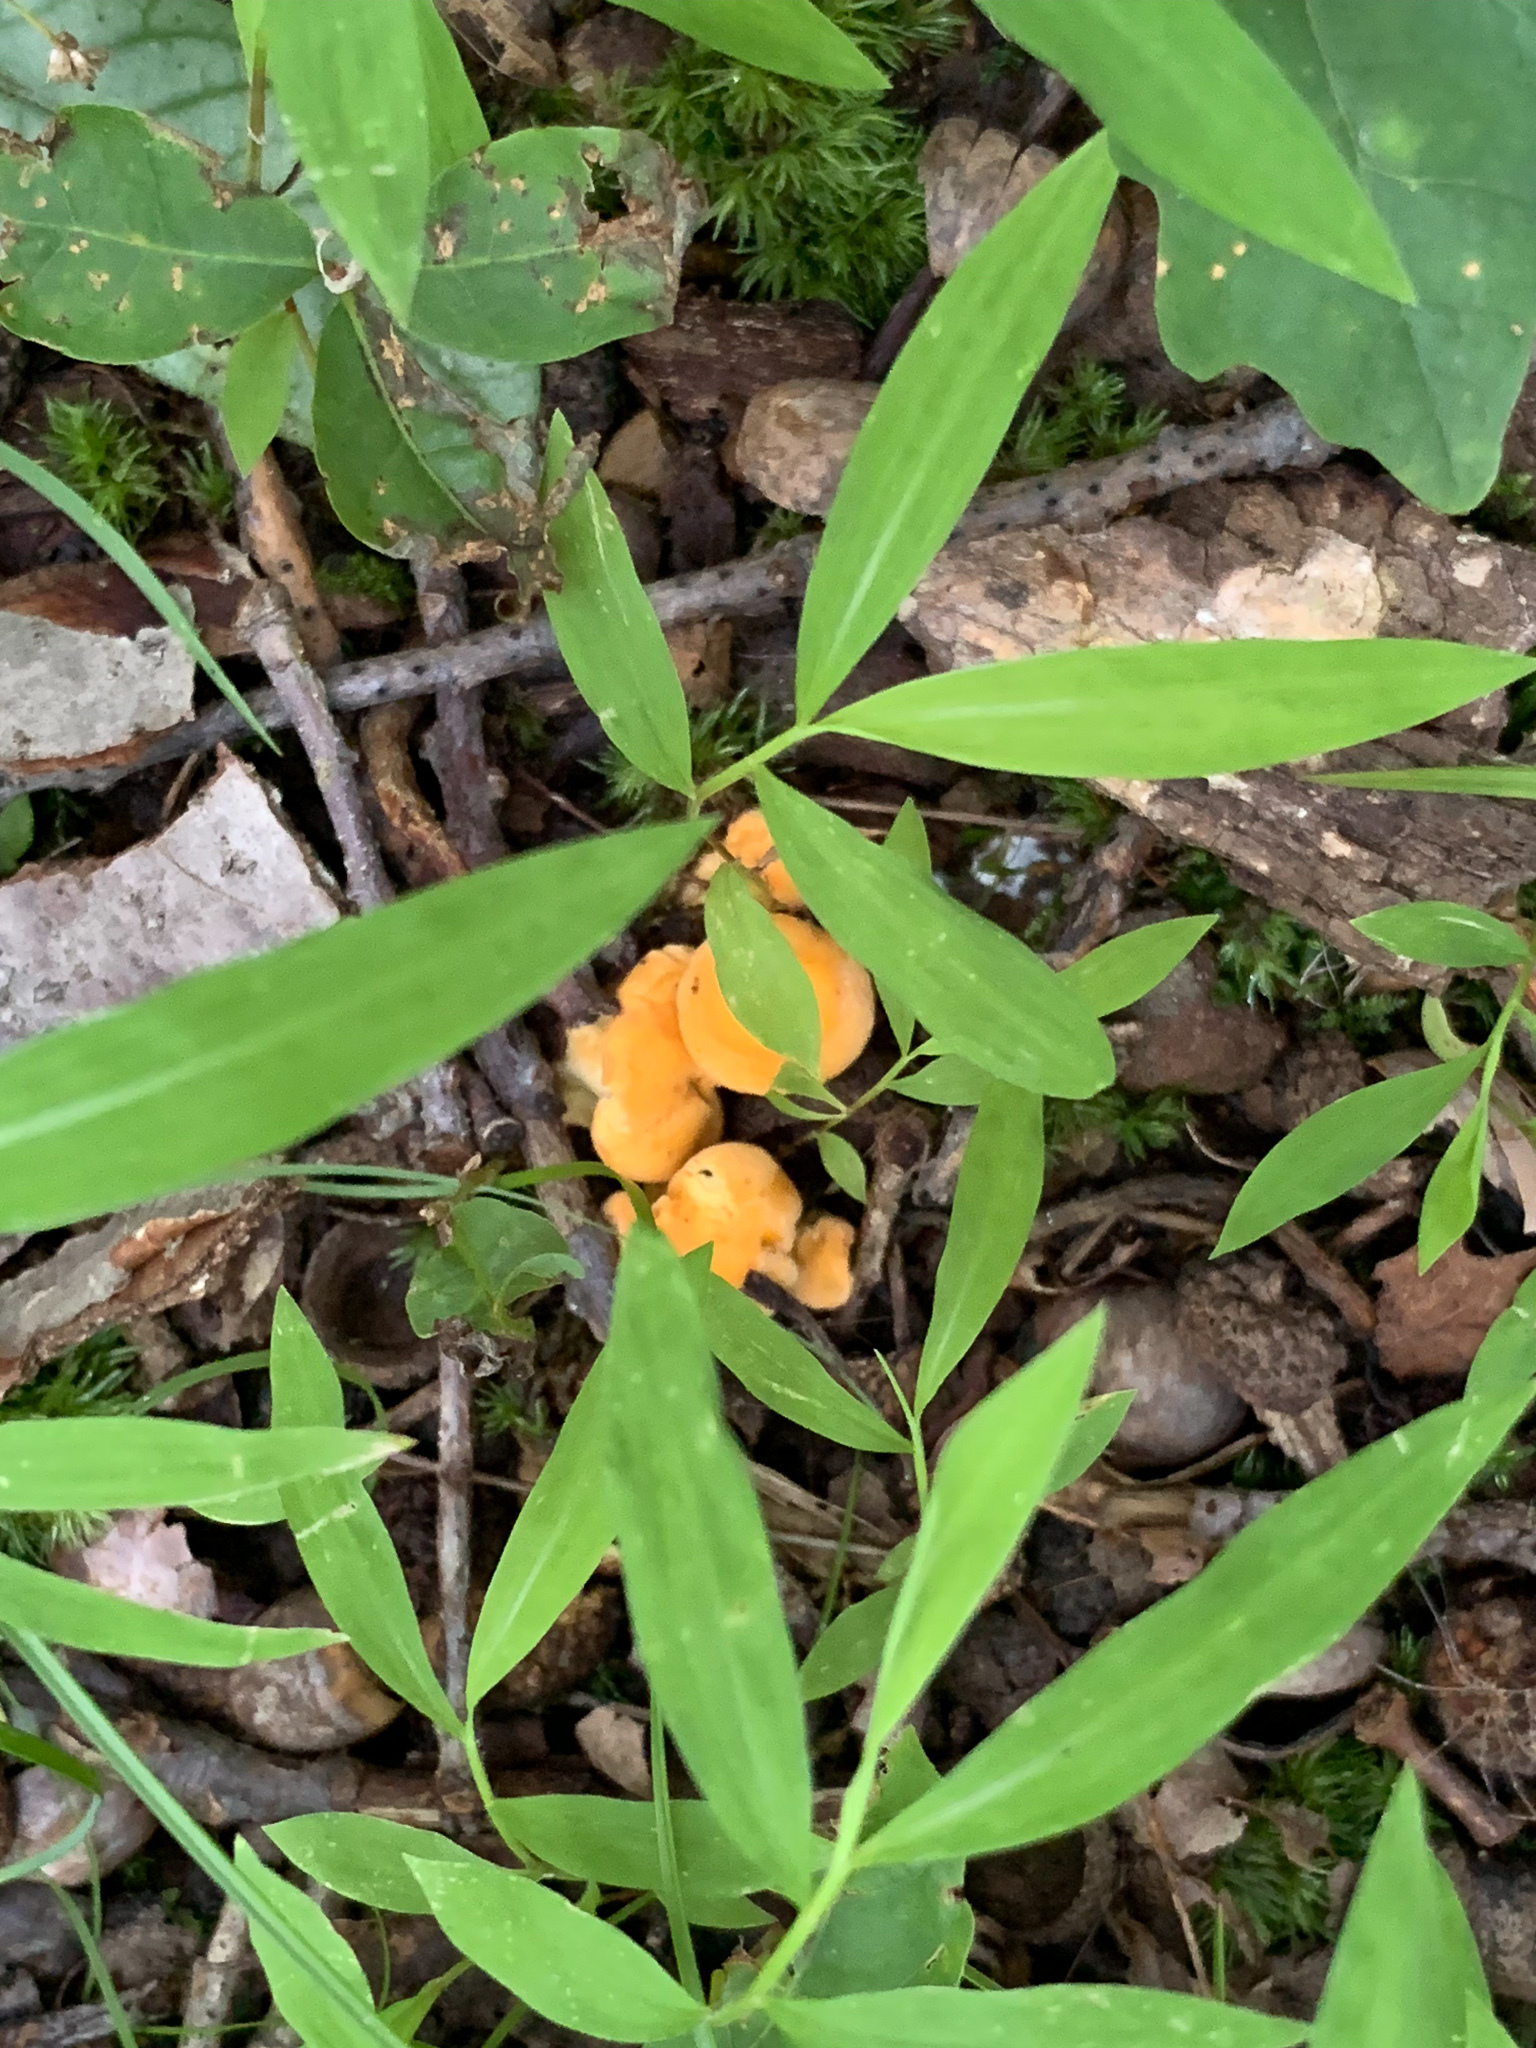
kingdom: Fungi
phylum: Basidiomycota
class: Agaricomycetes
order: Cantharellales
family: Hydnaceae
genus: Cantharellus
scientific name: Cantharellus lateritius
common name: Smooth chanterelle
